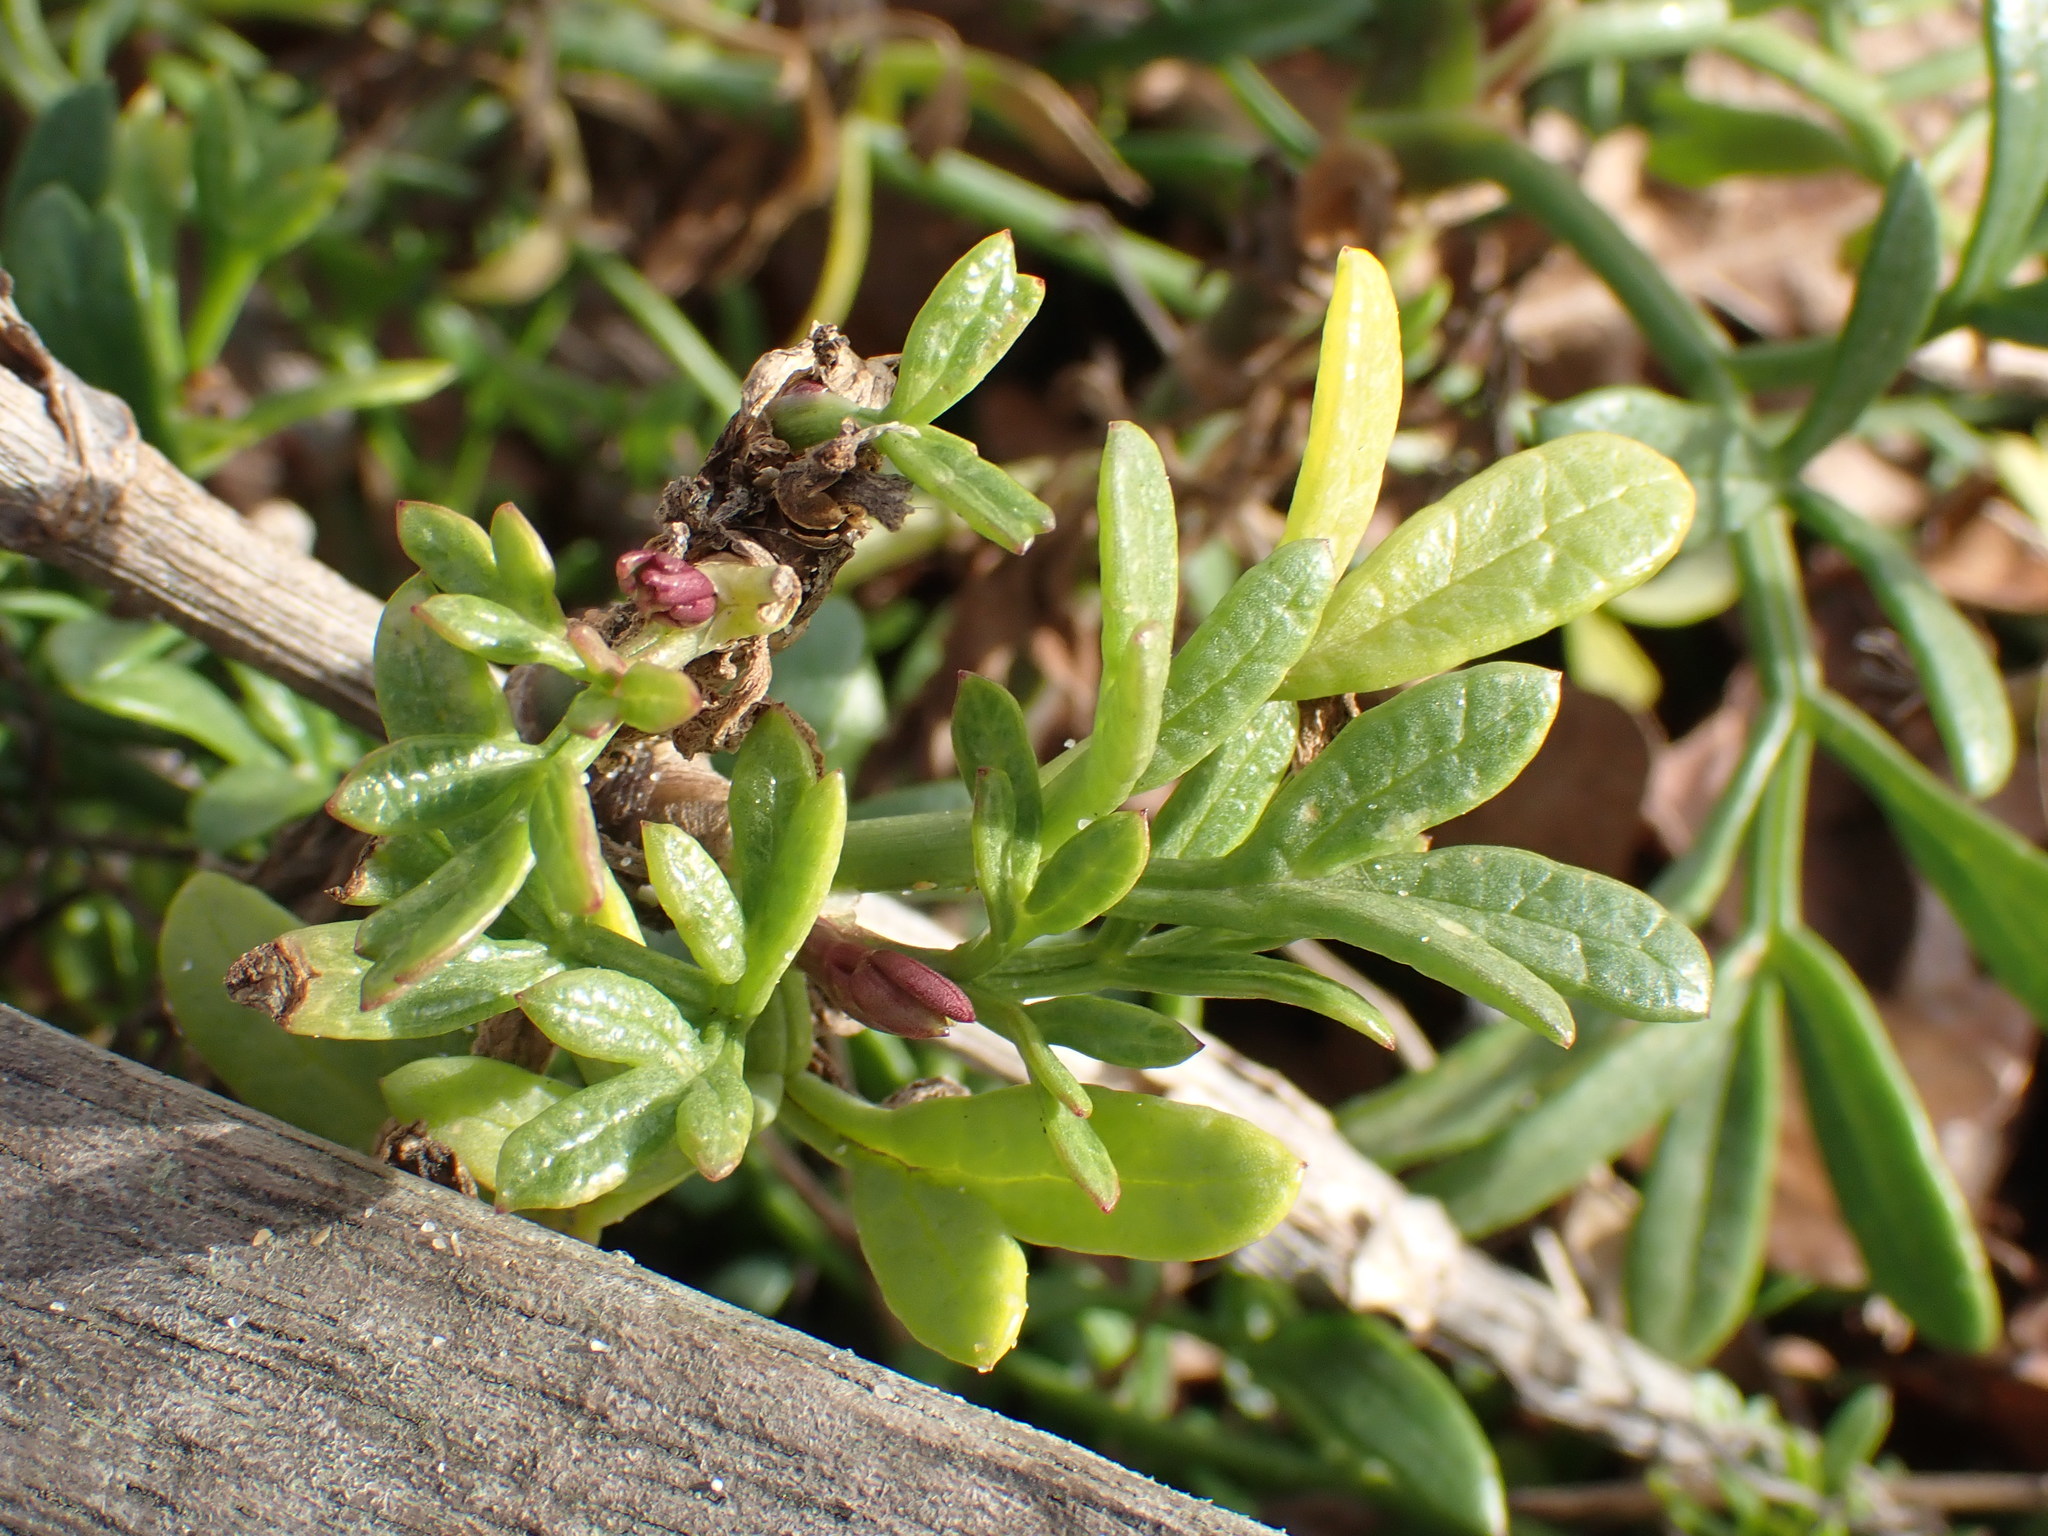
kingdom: Plantae
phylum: Tracheophyta
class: Magnoliopsida
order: Apiales
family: Apiaceae
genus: Crithmum
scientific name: Crithmum maritimum
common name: Rock samphire
